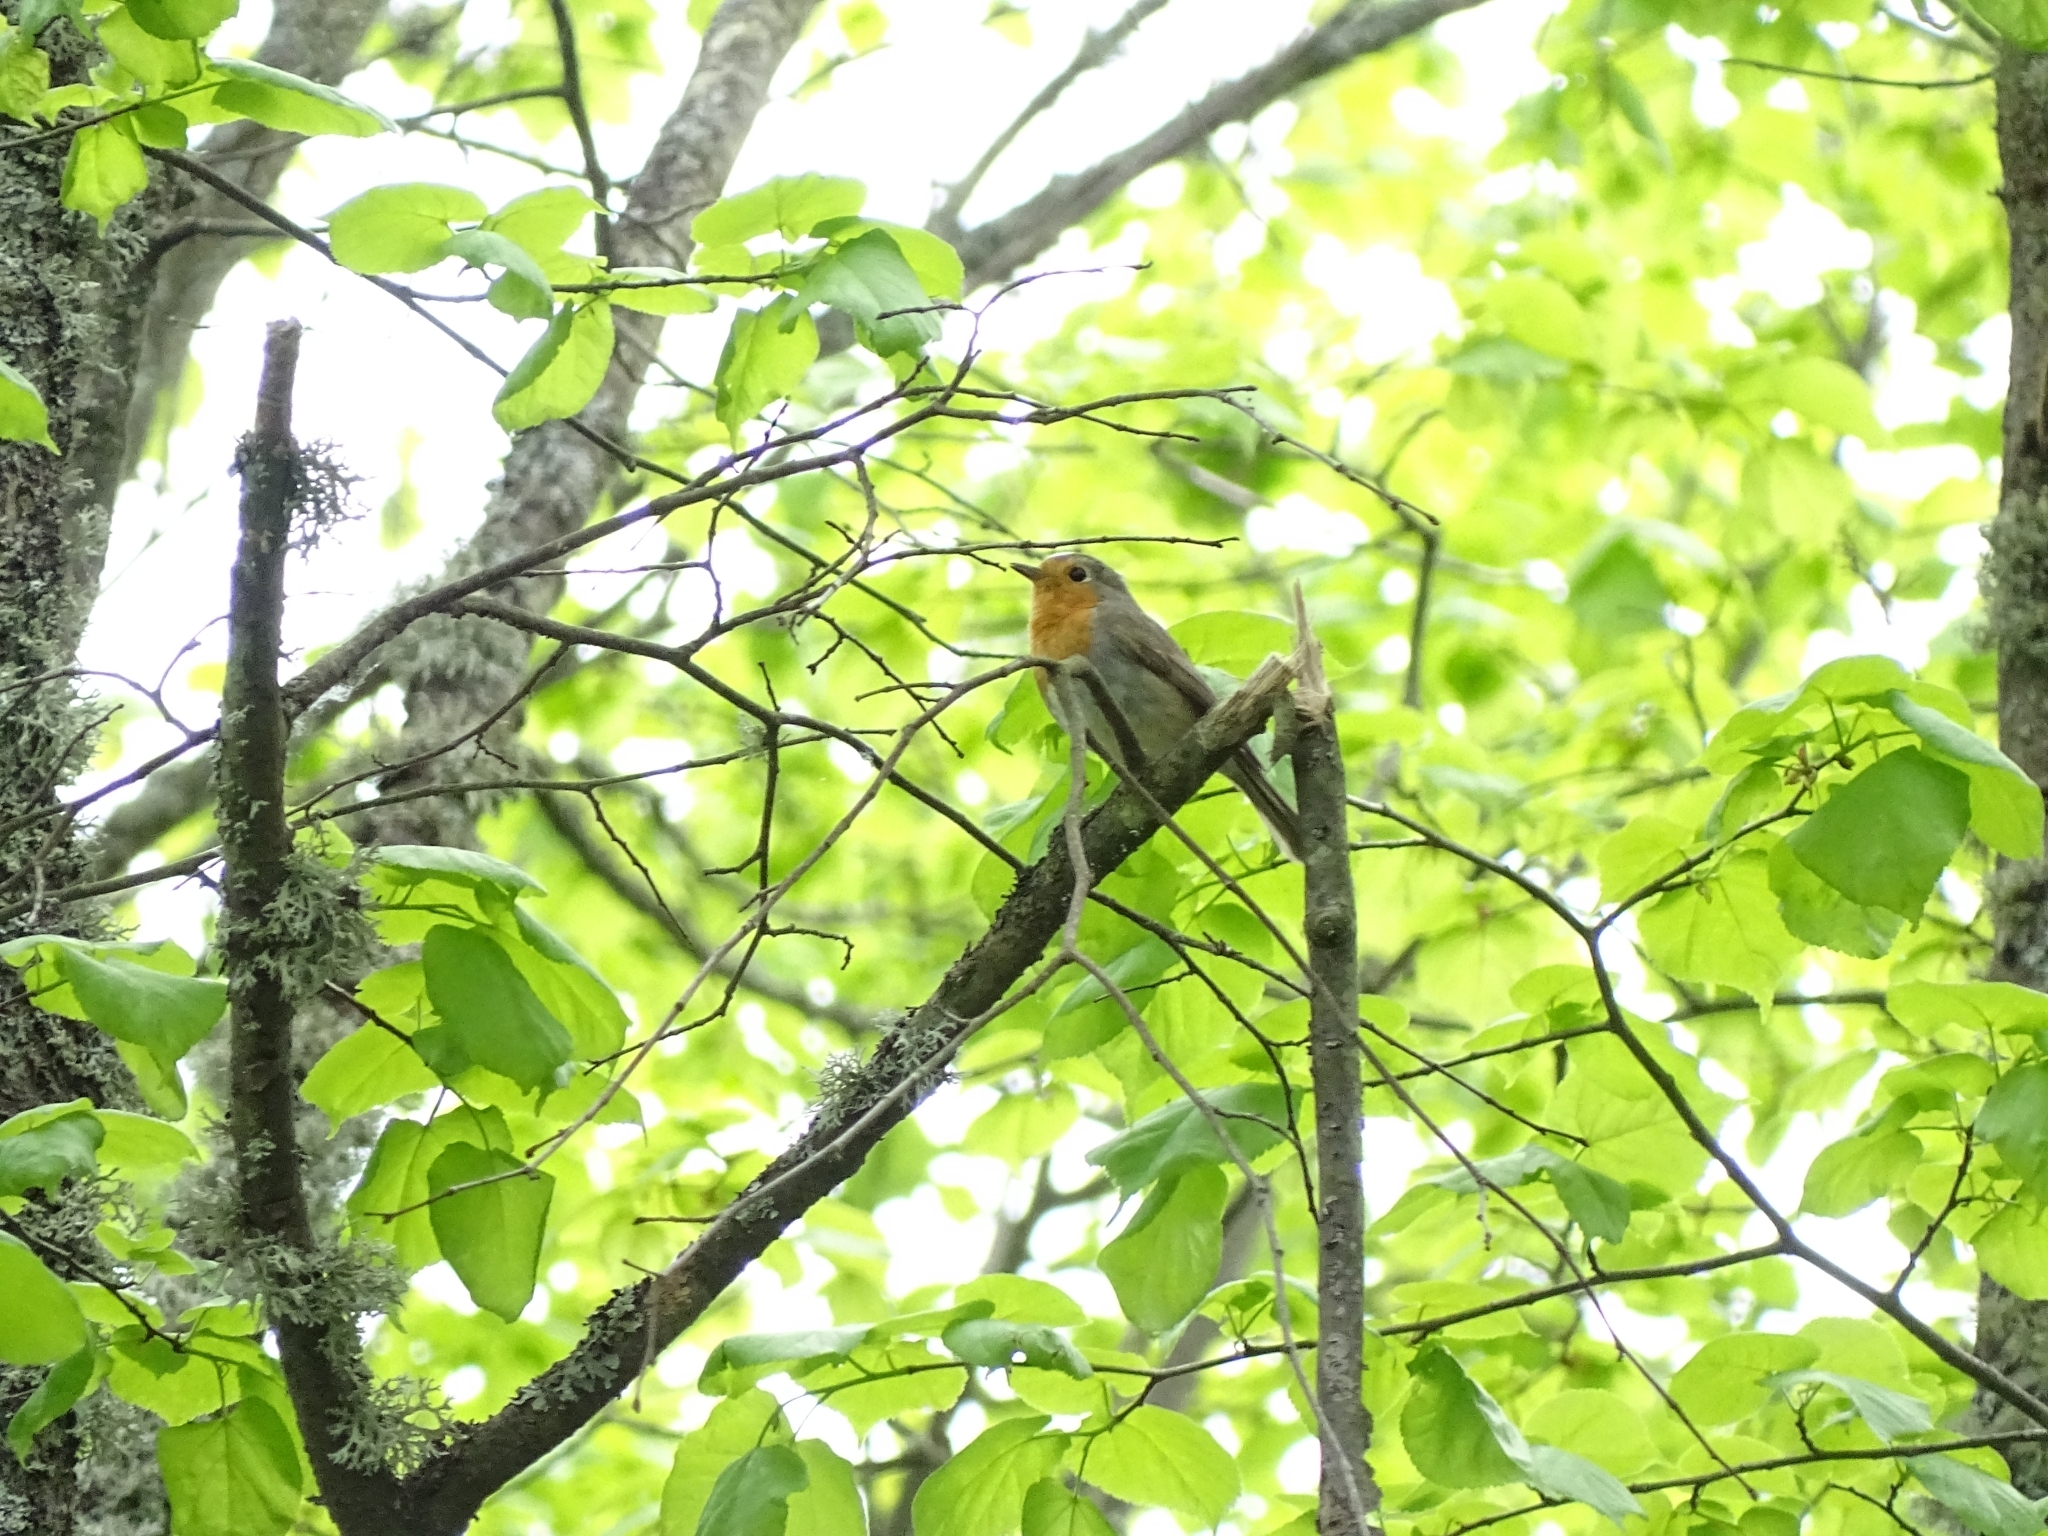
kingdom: Animalia
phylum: Chordata
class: Aves
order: Passeriformes
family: Muscicapidae
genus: Erithacus
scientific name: Erithacus rubecula
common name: European robin
